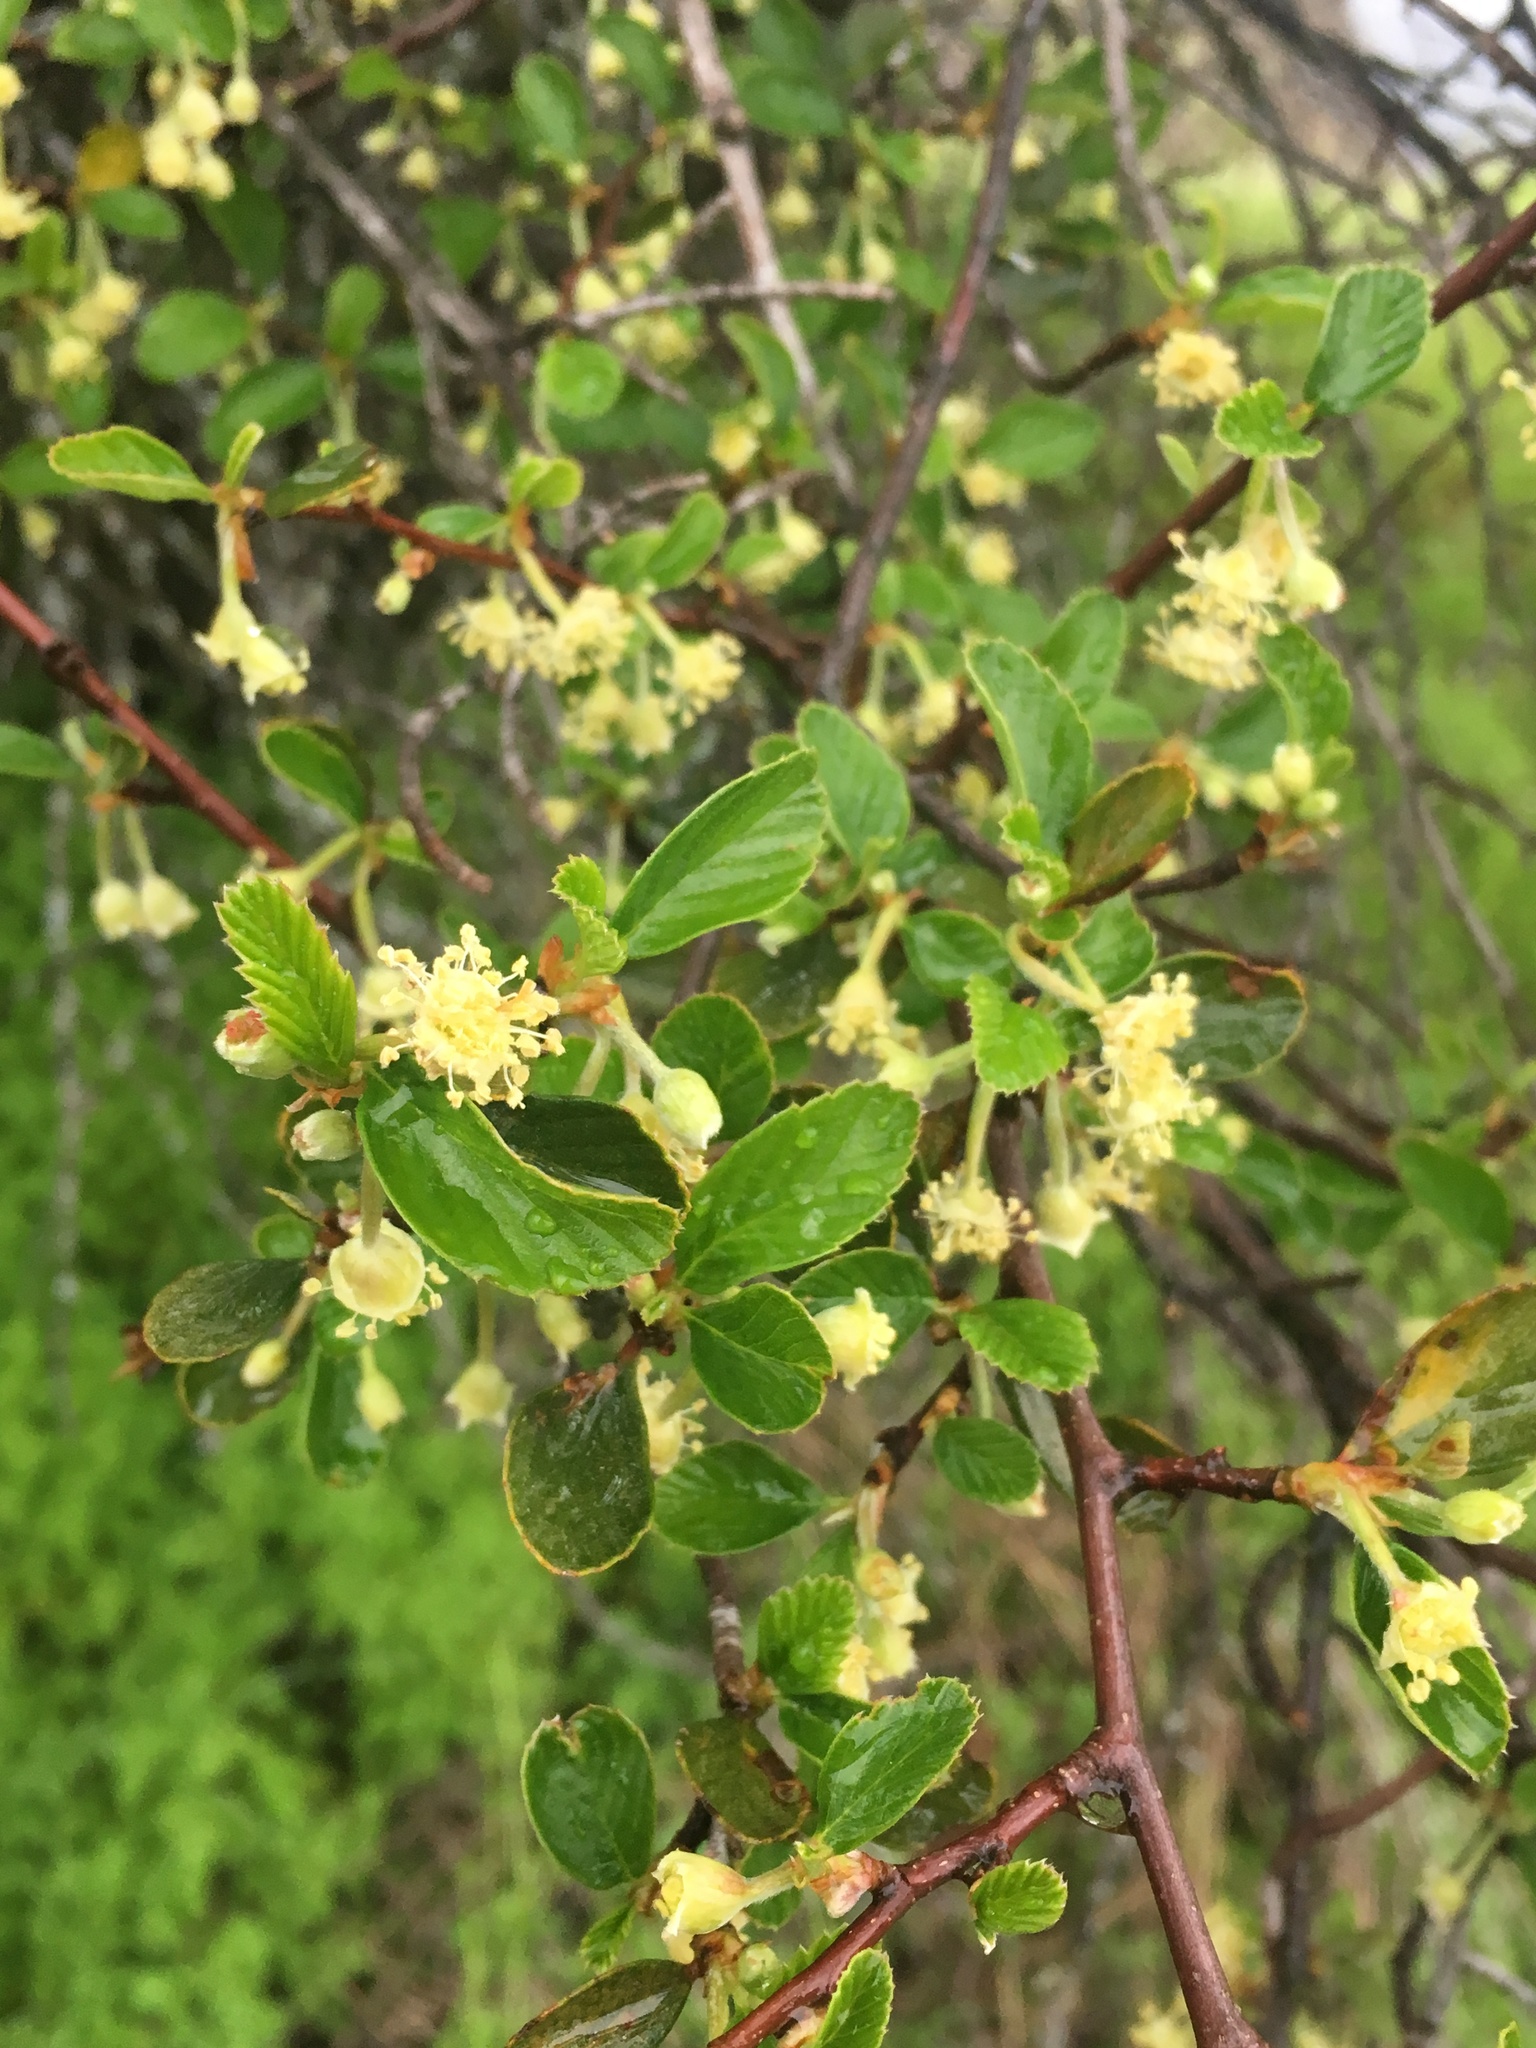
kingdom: Plantae
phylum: Tracheophyta
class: Magnoliopsida
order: Rosales
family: Rosaceae
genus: Cercocarpus
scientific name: Cercocarpus betuloides
